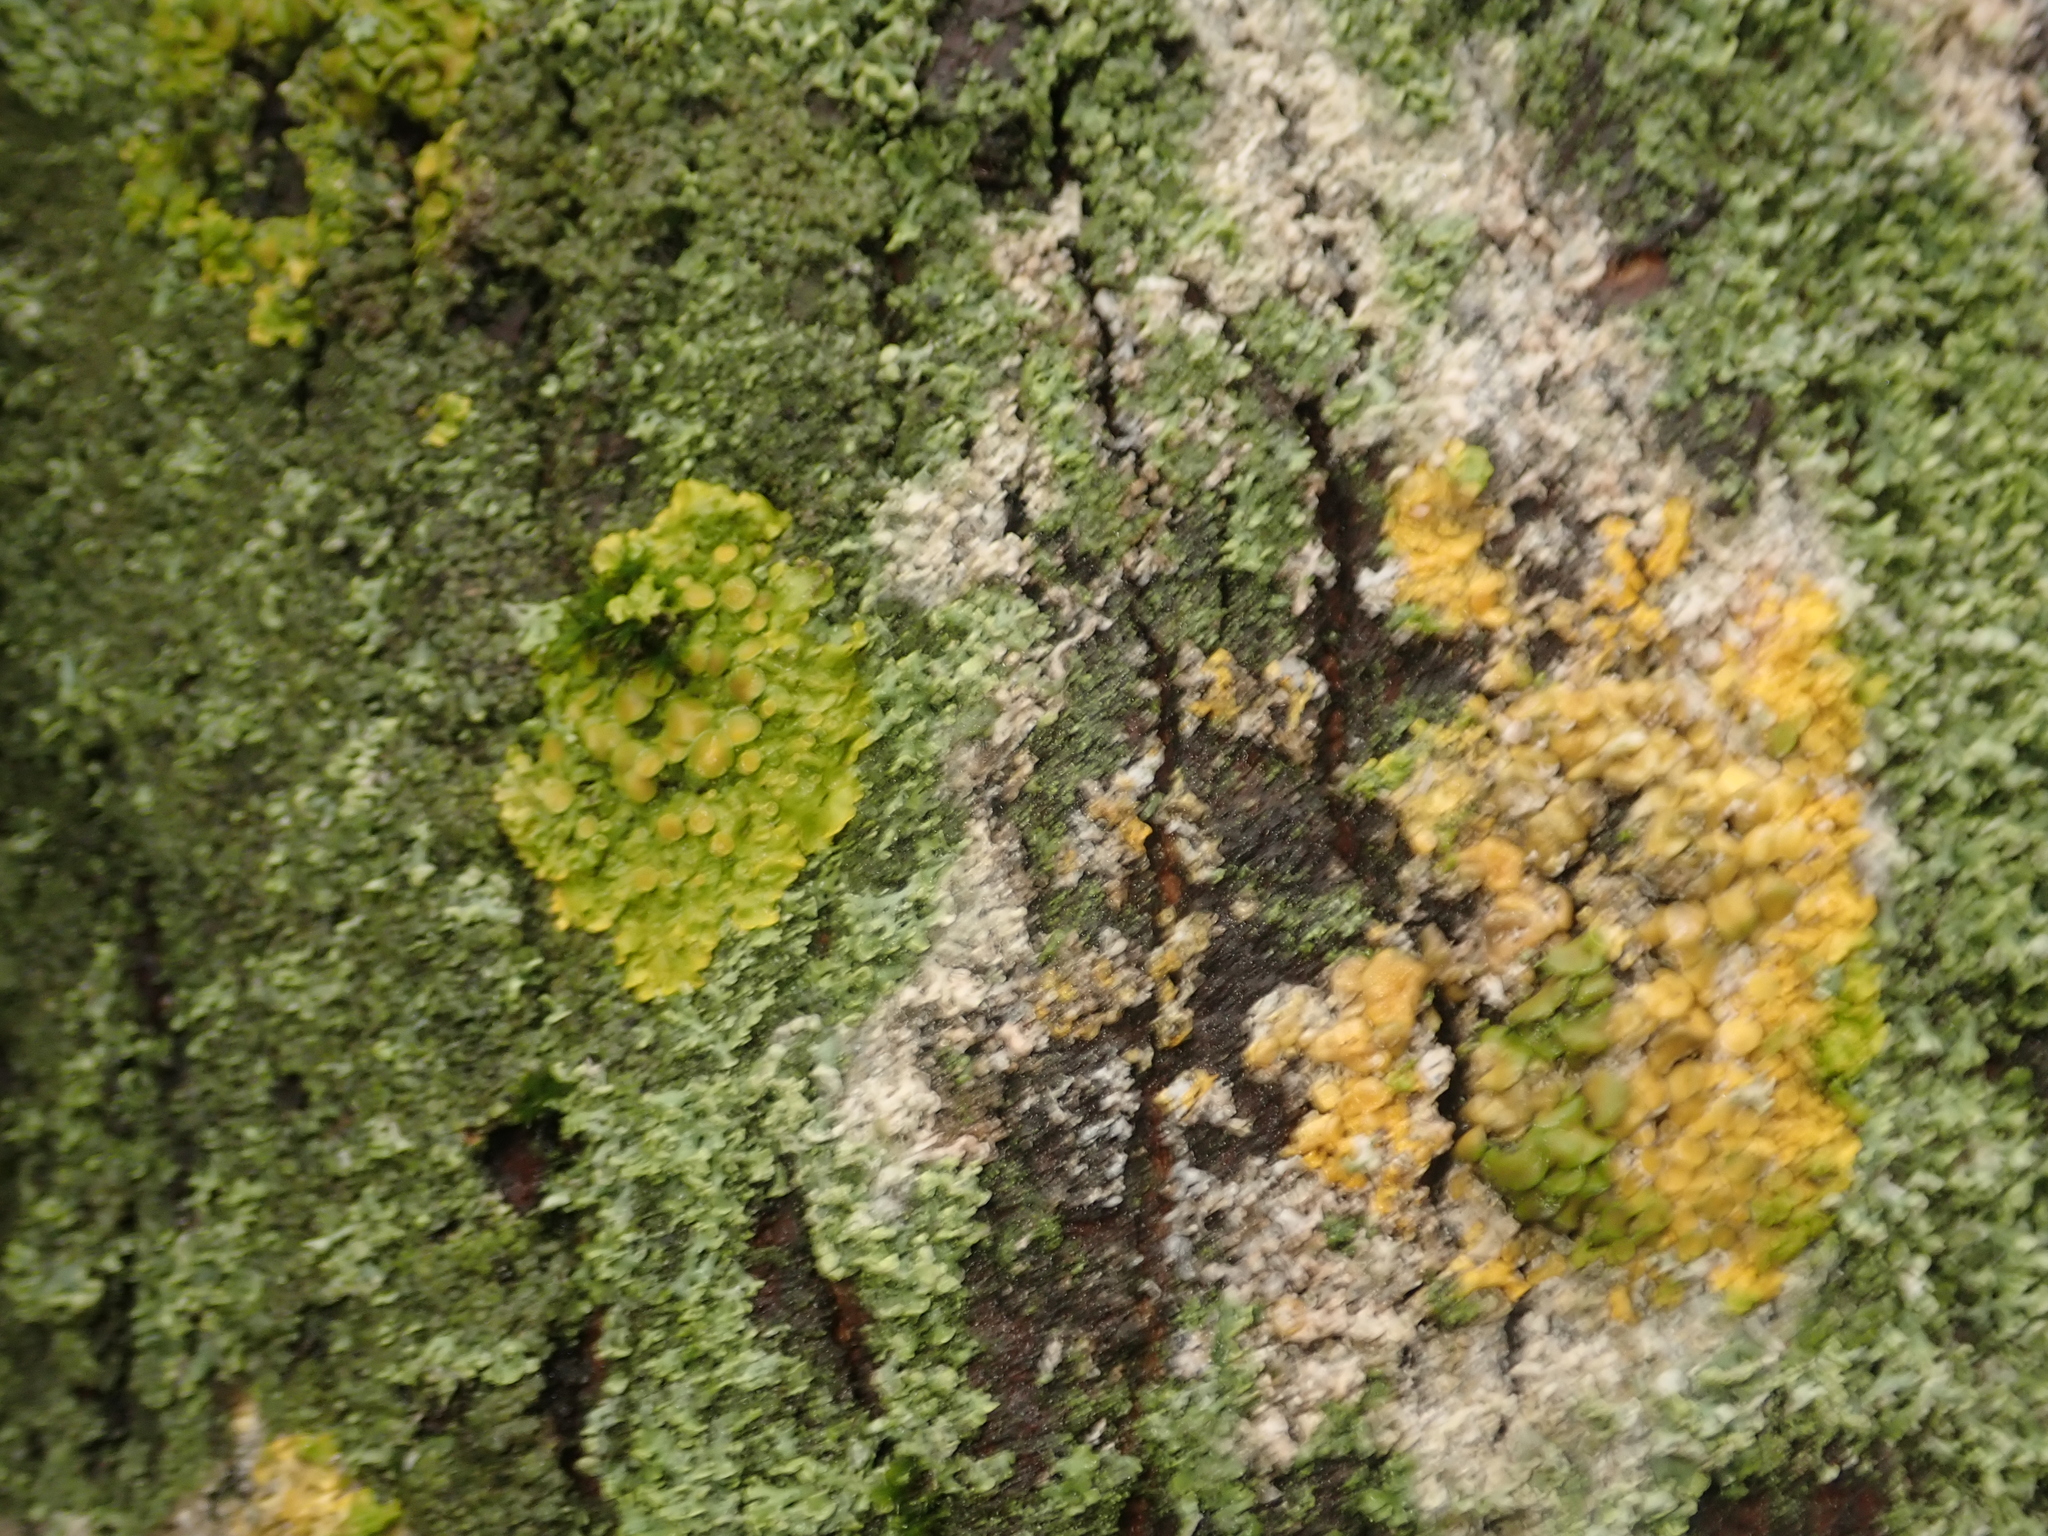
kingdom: Fungi
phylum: Basidiomycota
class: Agaricomycetes
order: Atheliales
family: Atheliaceae
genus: Athelia
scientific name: Athelia arachnoidea
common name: Candelabra duster
